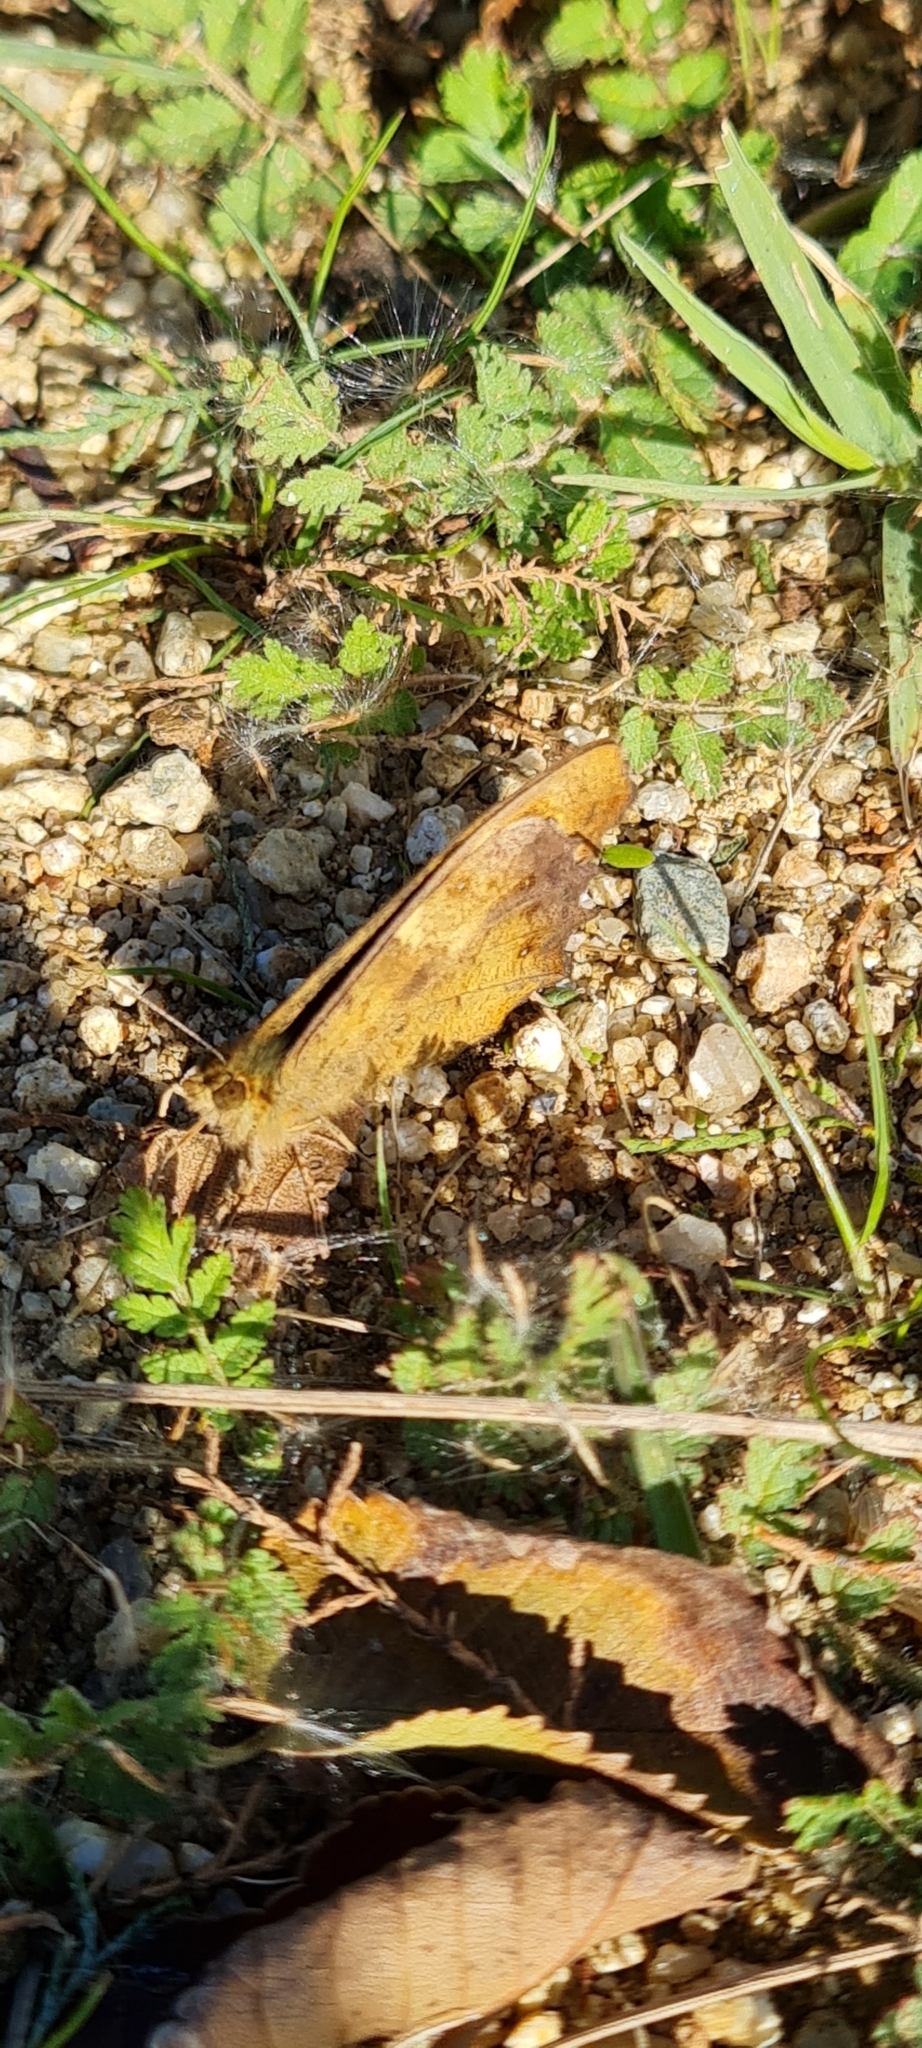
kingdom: Animalia
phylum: Arthropoda
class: Insecta
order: Lepidoptera
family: Nymphalidae
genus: Pararge
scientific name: Pararge aegeria
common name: Speckled wood
